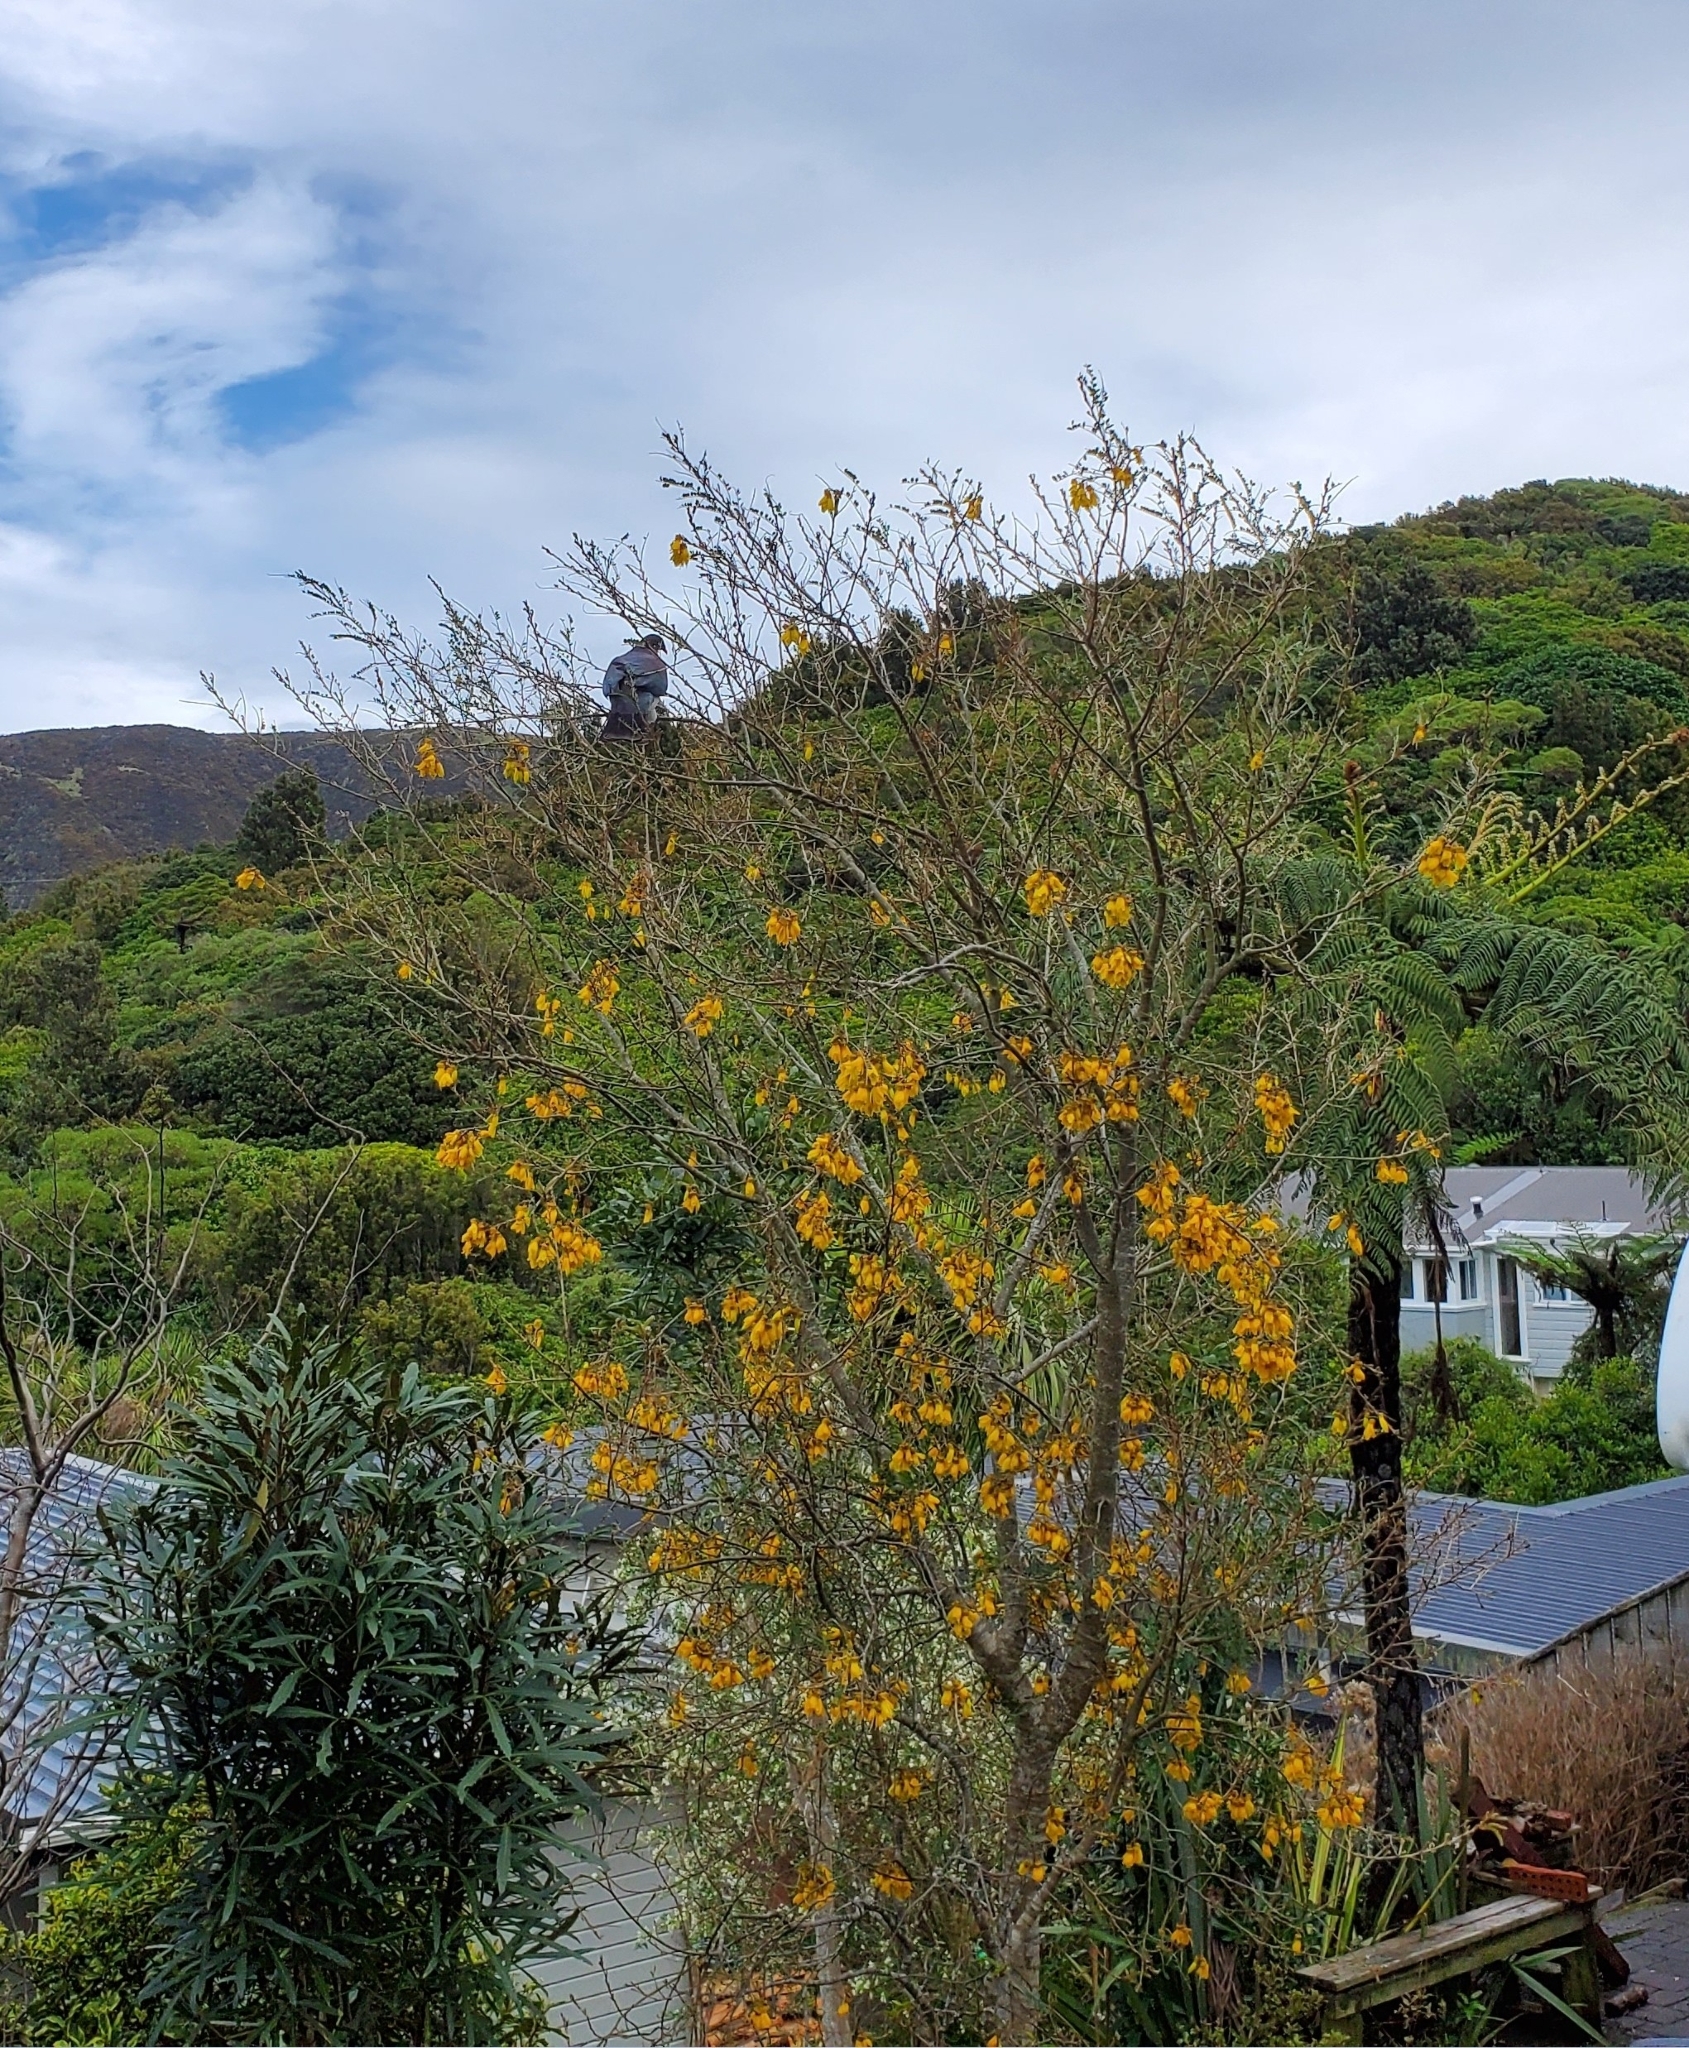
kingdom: Animalia
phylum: Chordata
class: Aves
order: Columbiformes
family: Columbidae
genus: Hemiphaga
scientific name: Hemiphaga novaeseelandiae
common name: New zealand pigeon
